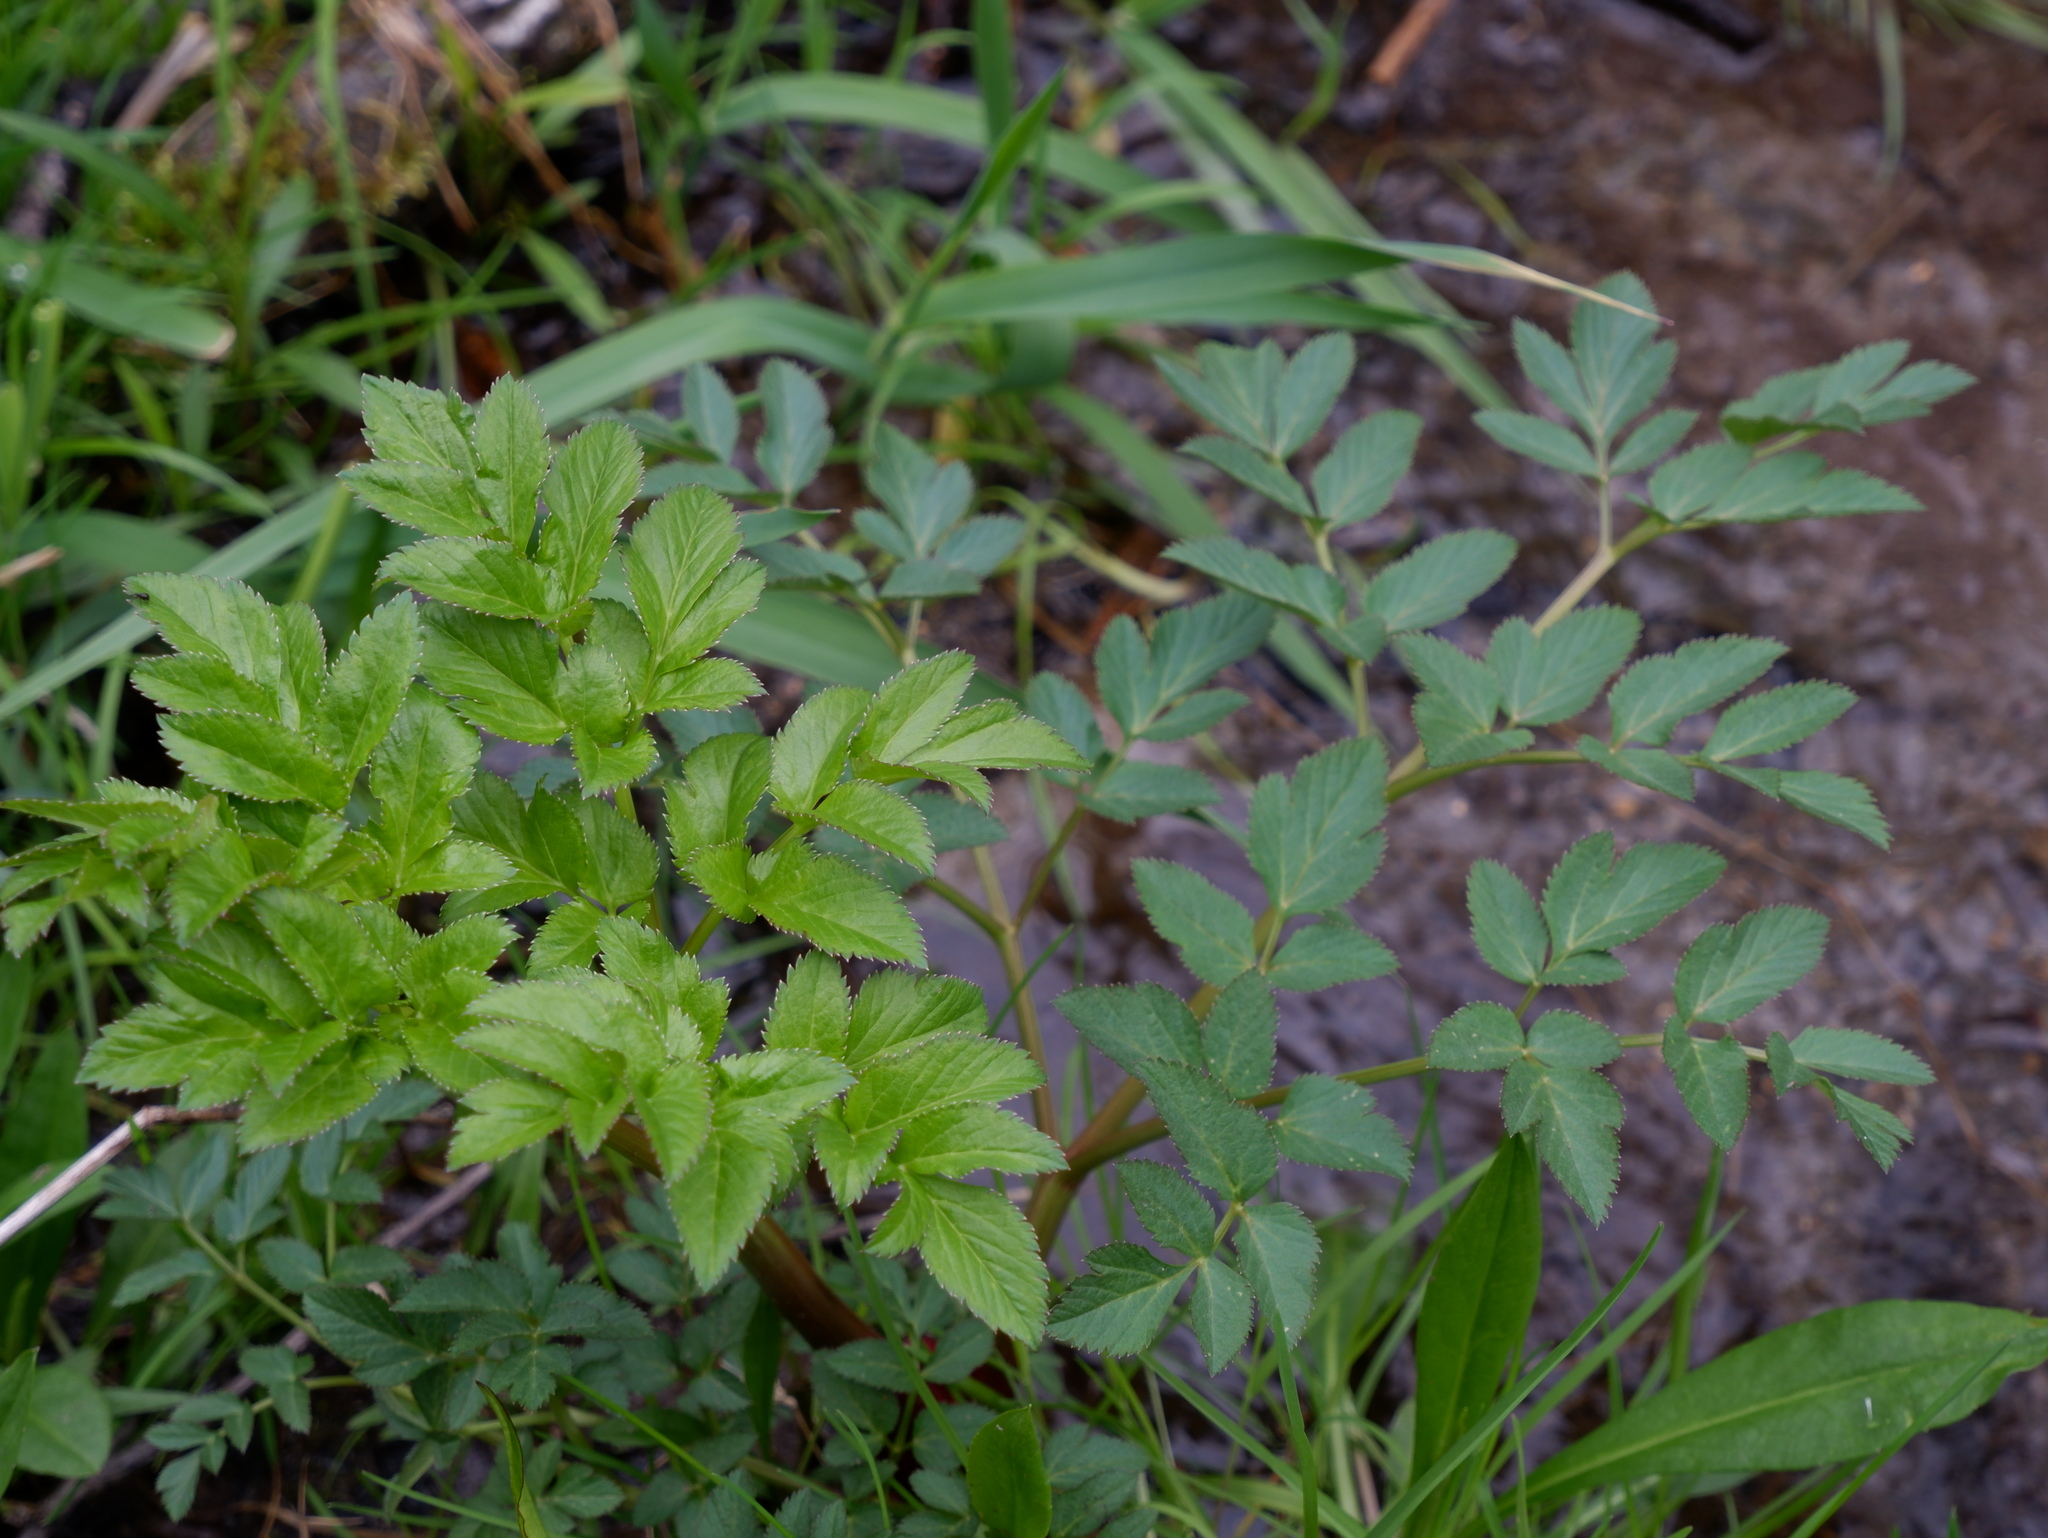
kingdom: Plantae
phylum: Tracheophyta
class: Magnoliopsida
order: Apiales
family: Apiaceae
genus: Angelica
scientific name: Angelica atropurpurea
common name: Great angelica
